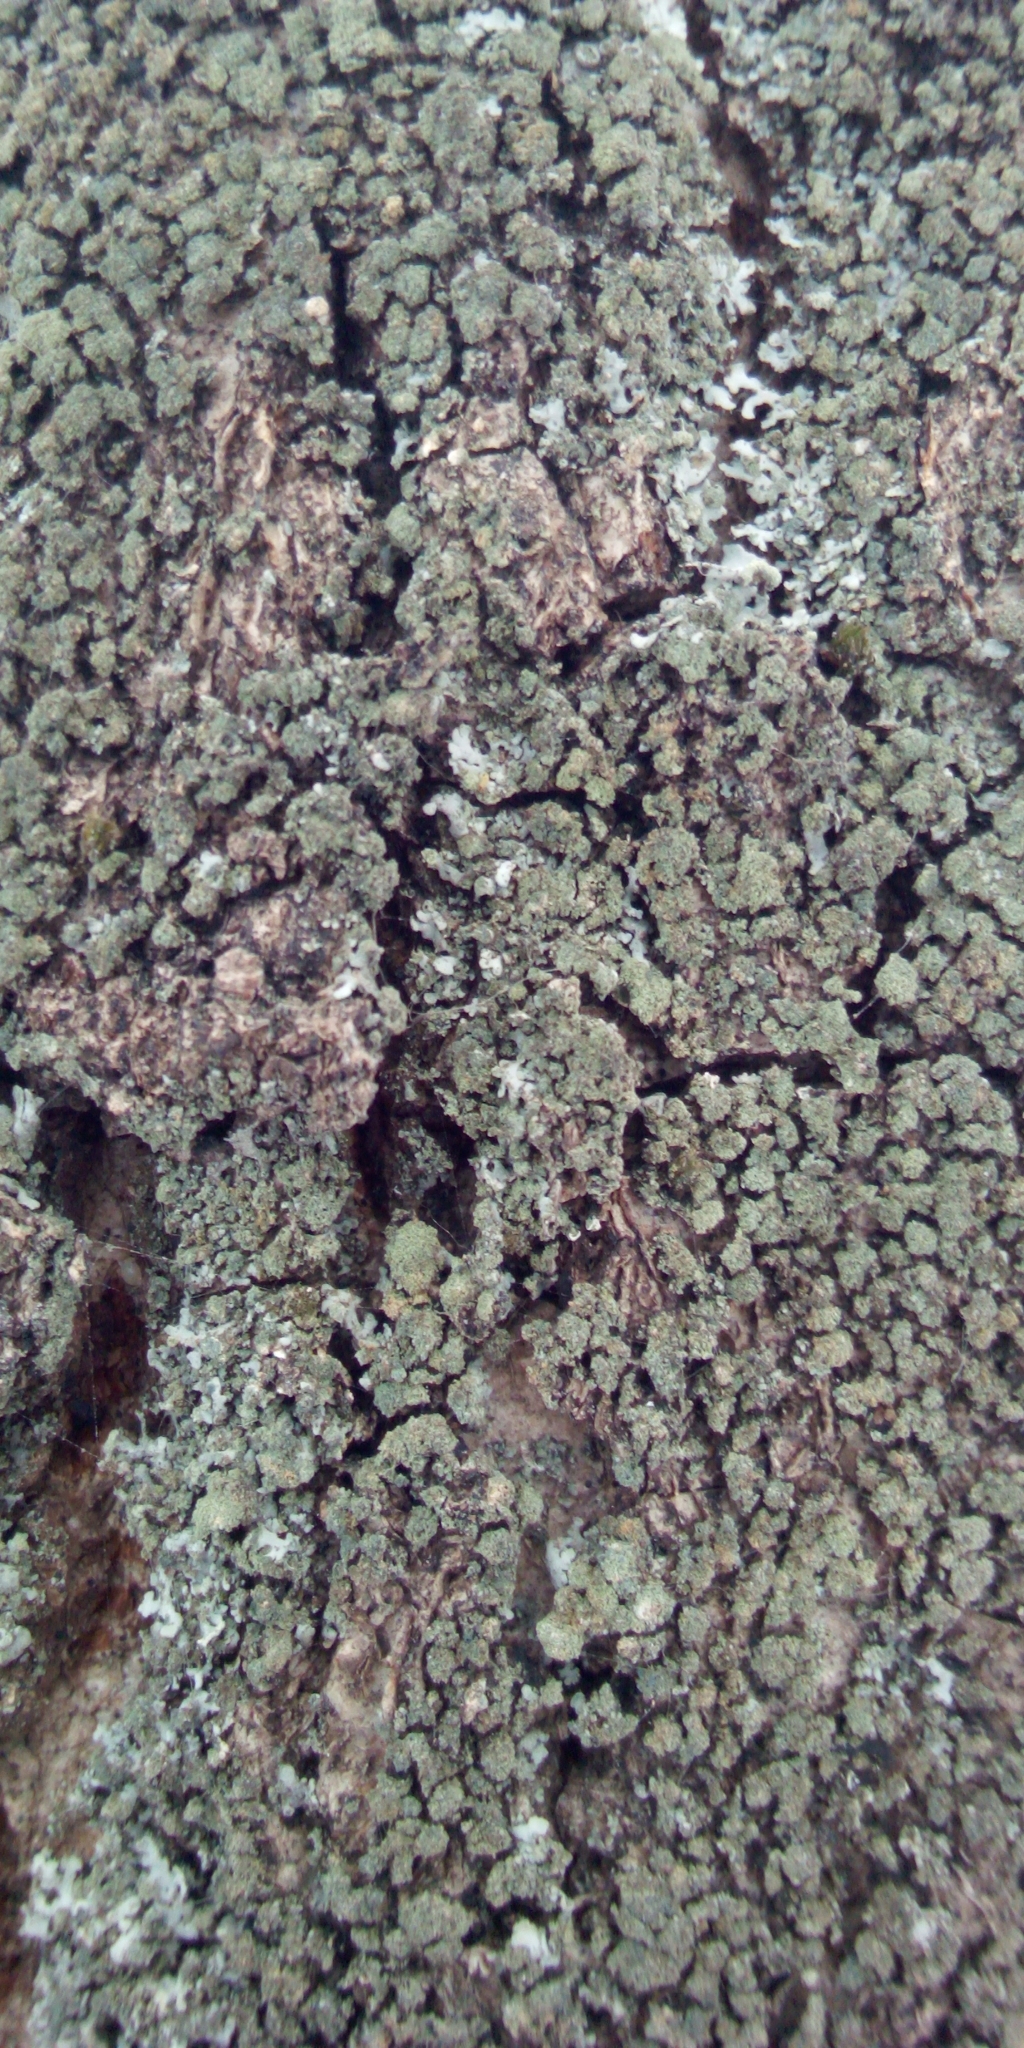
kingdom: Fungi
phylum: Ascomycota
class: Lecanoromycetes
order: Caliciales
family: Physciaceae
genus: Phaeophyscia
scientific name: Phaeophyscia orbicularis
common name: Mealy shadow lichen
